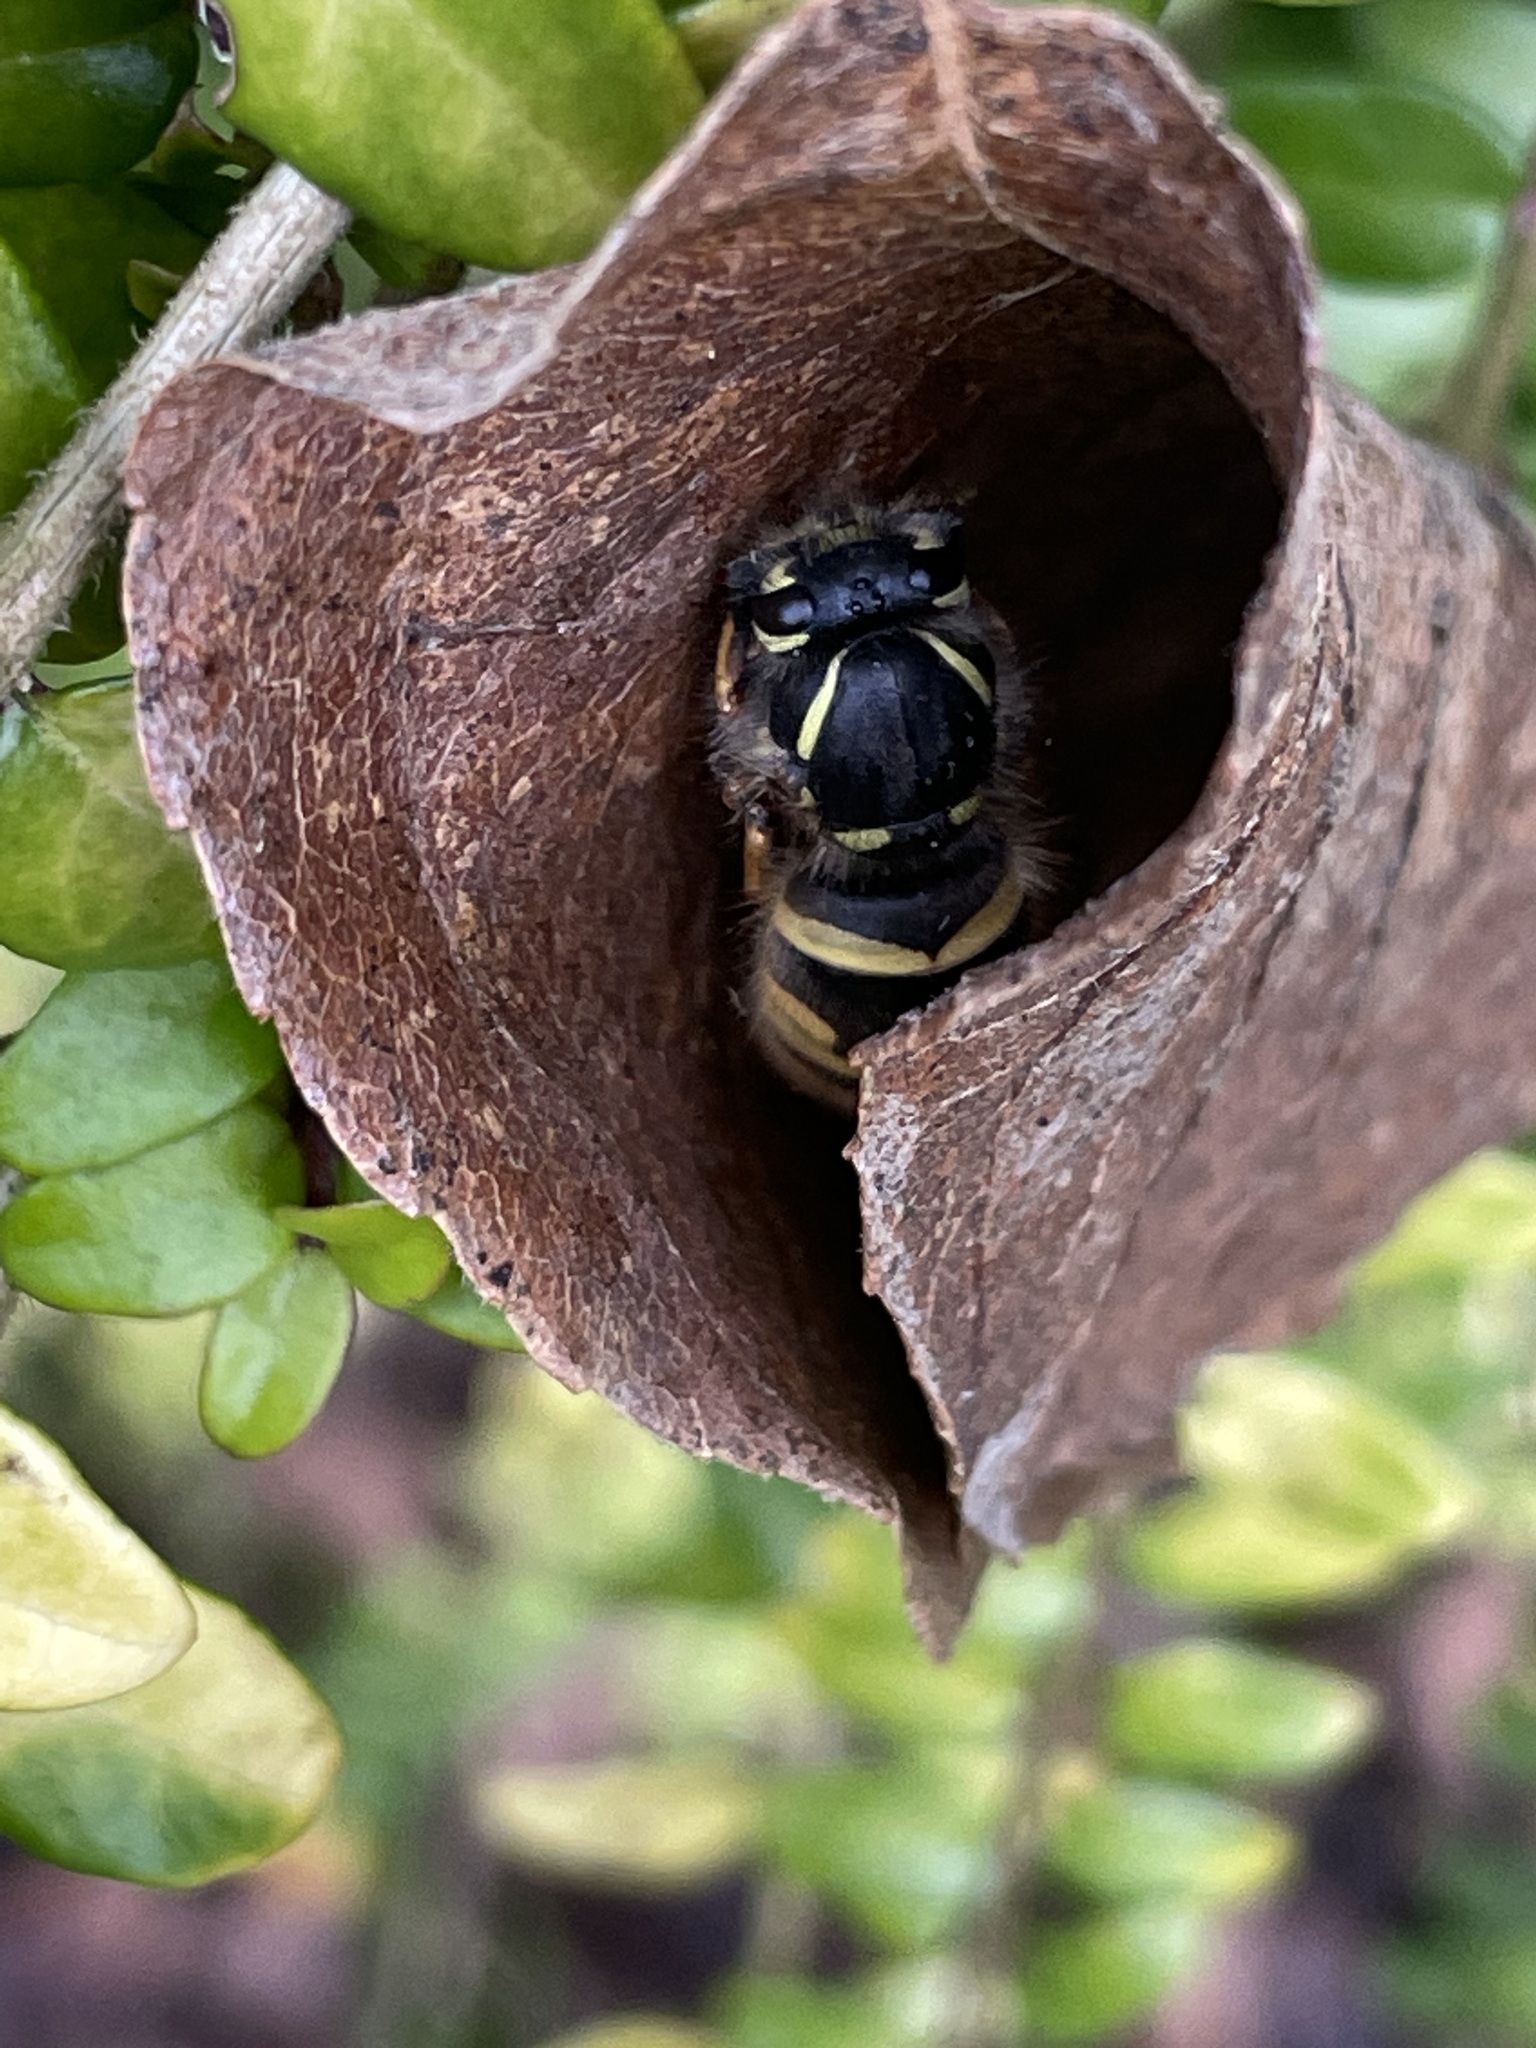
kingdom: Animalia
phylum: Arthropoda
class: Insecta
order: Hymenoptera
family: Vespidae
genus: Vespula
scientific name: Vespula vulgaris
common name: Common wasp
